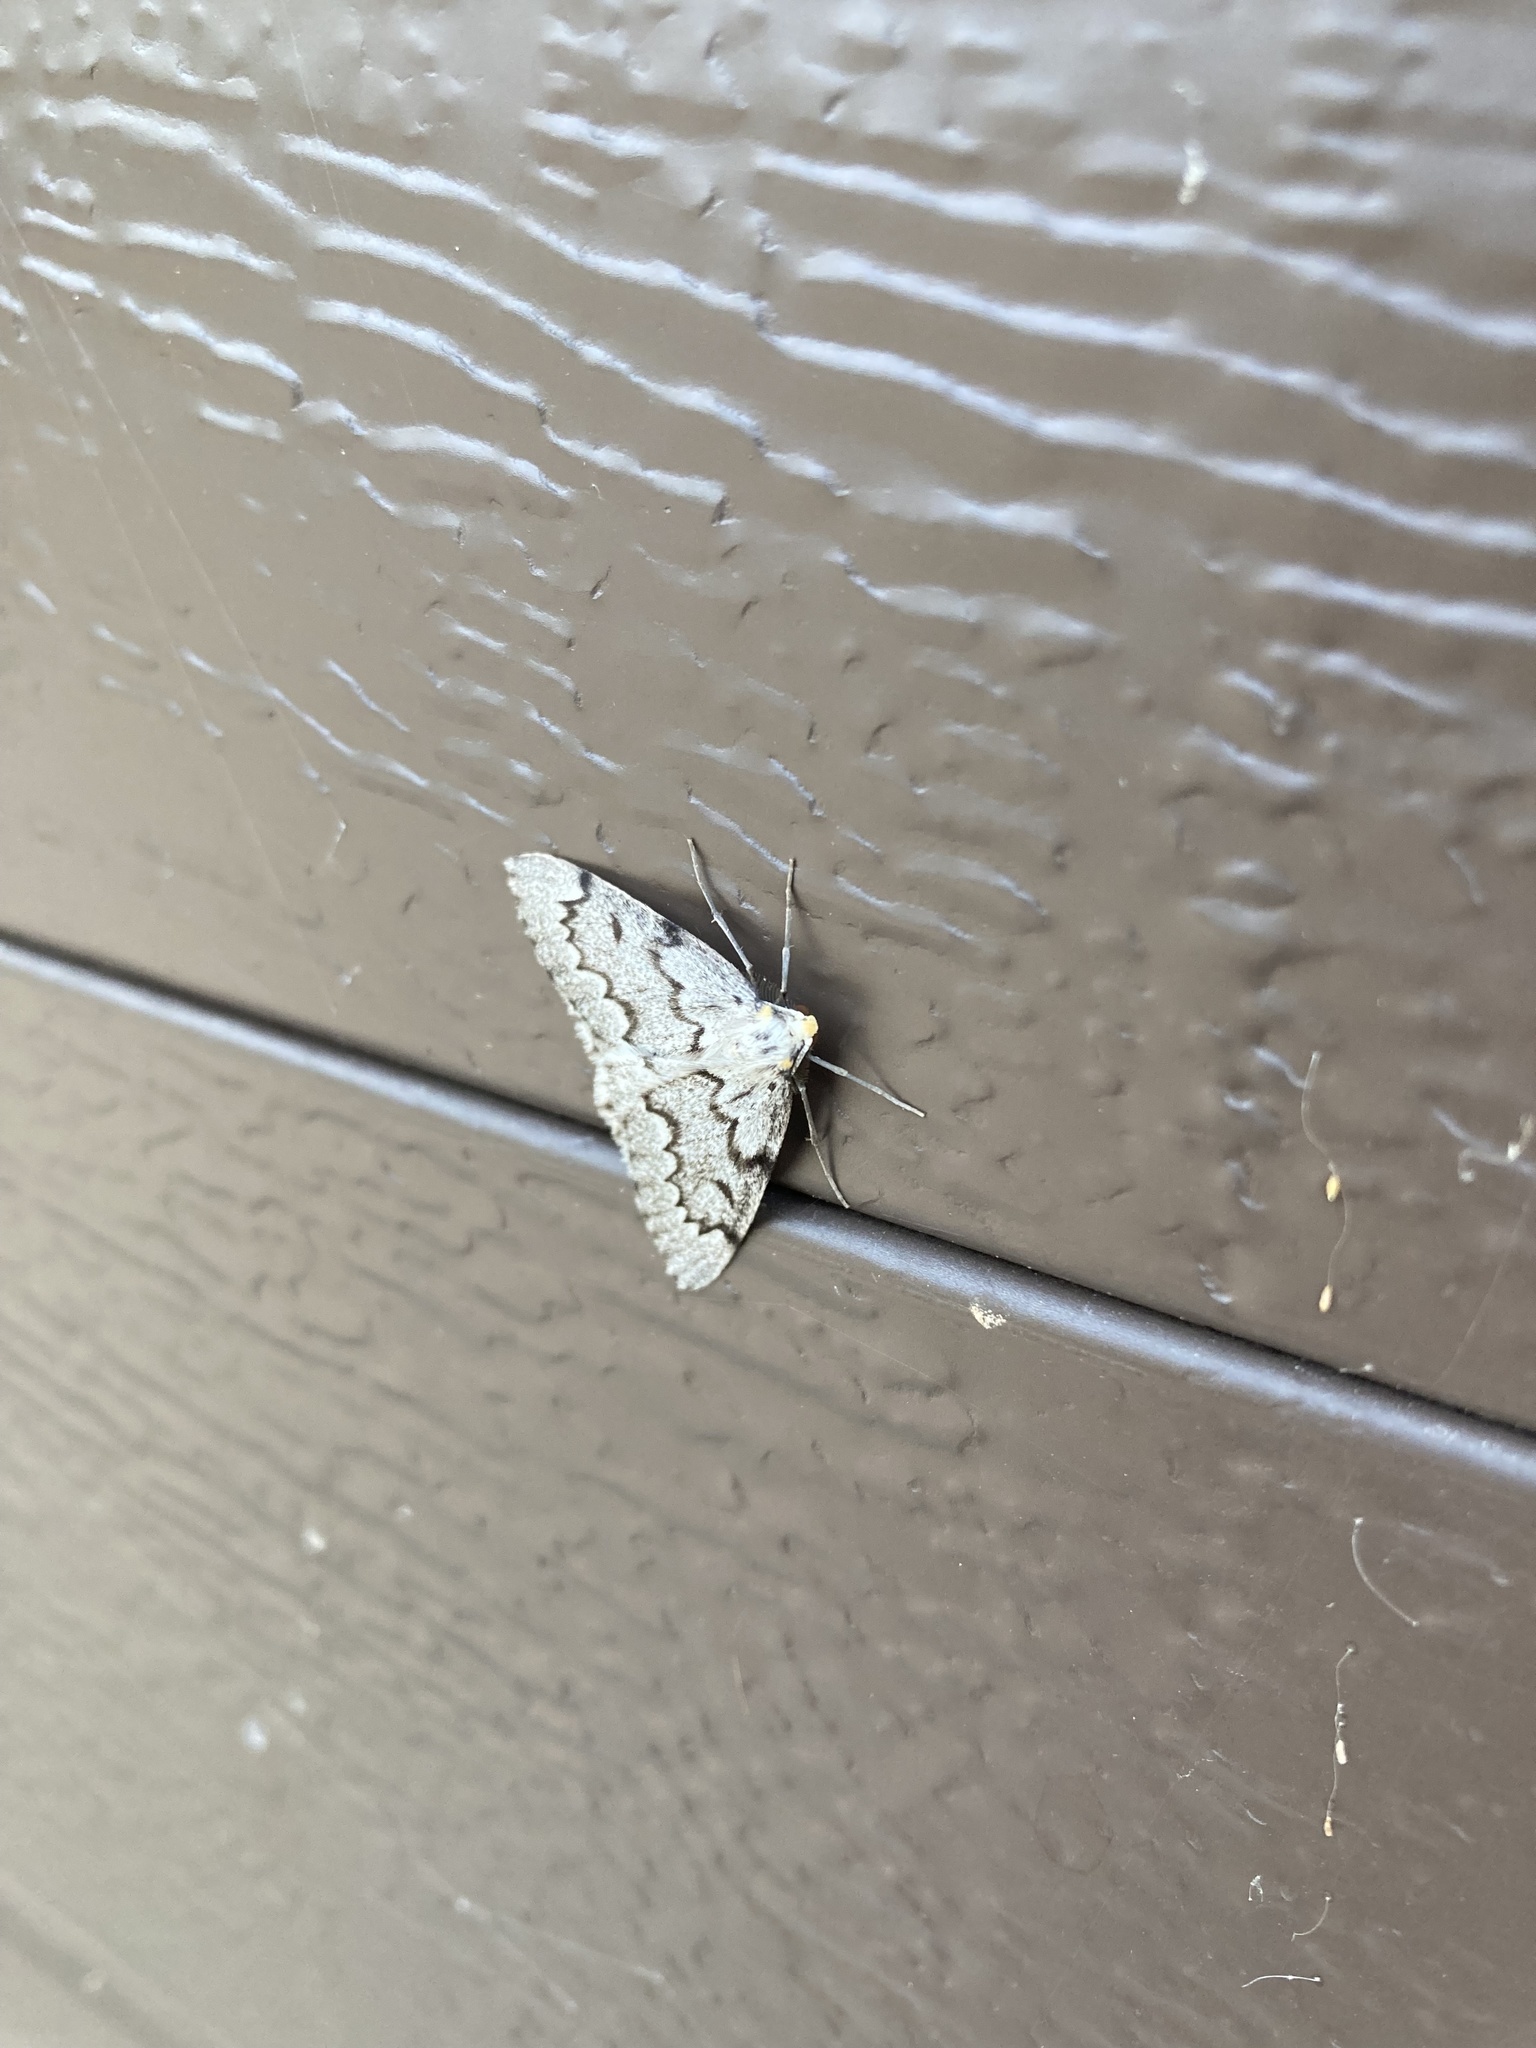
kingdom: Animalia
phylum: Arthropoda
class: Insecta
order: Lepidoptera
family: Geometridae
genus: Nepytia
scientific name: Nepytia canosaria
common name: False hemlock looper
